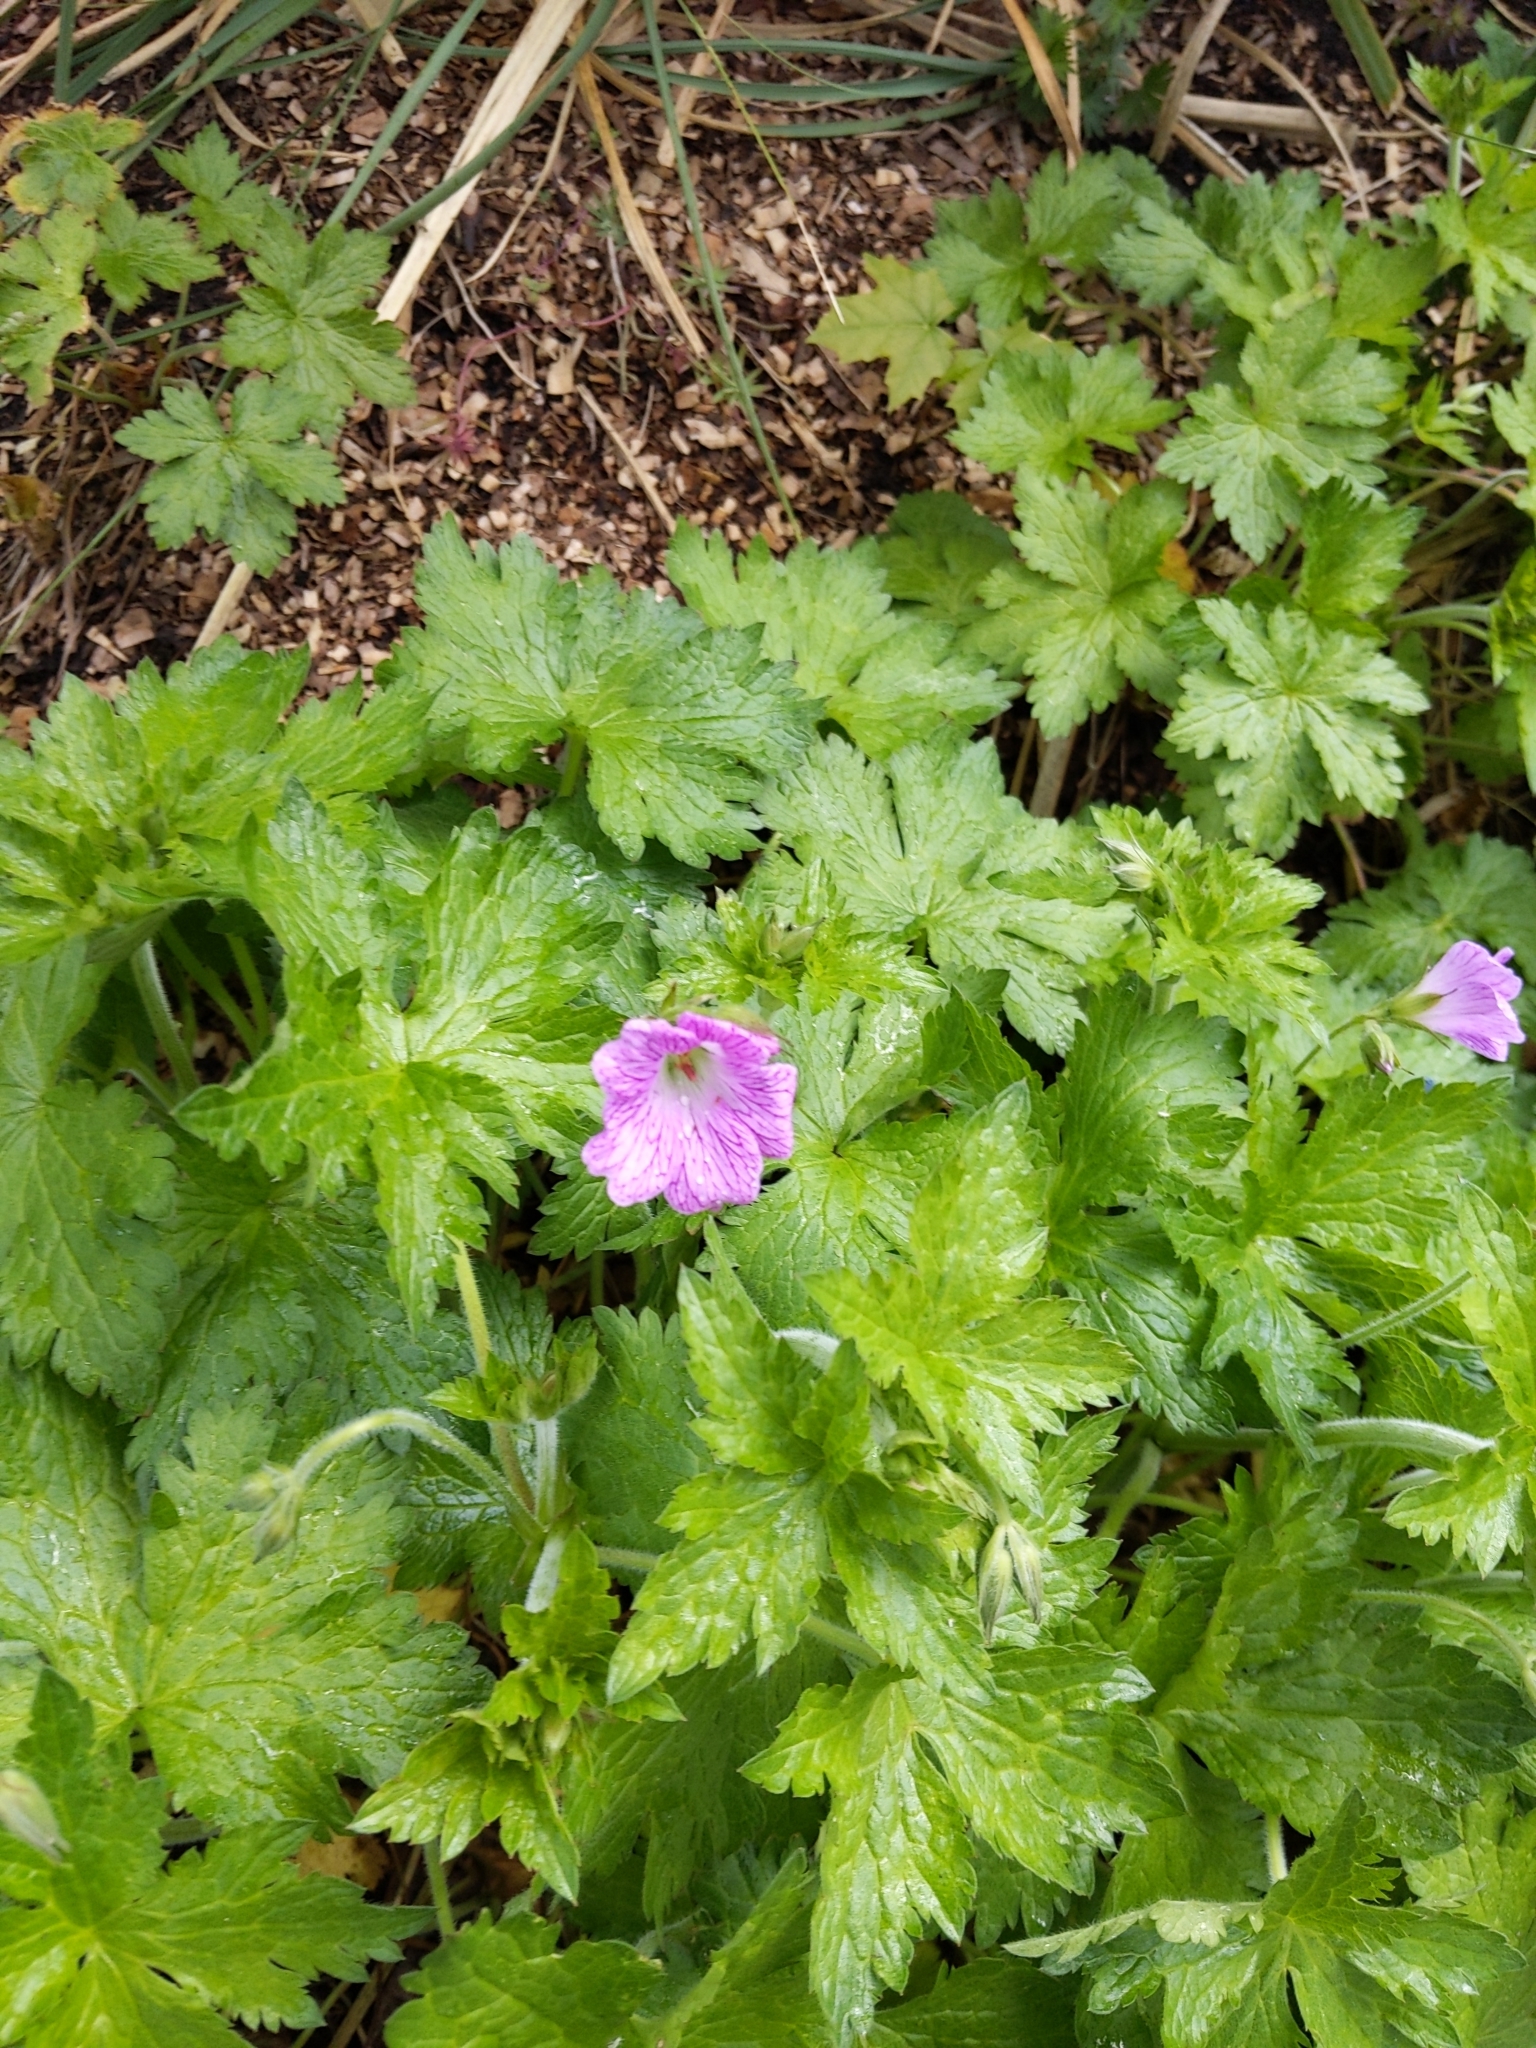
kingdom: Plantae
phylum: Tracheophyta
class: Magnoliopsida
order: Geraniales
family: Geraniaceae
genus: Geranium
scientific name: Geranium oxonianum
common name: Druce's crane's-bill
